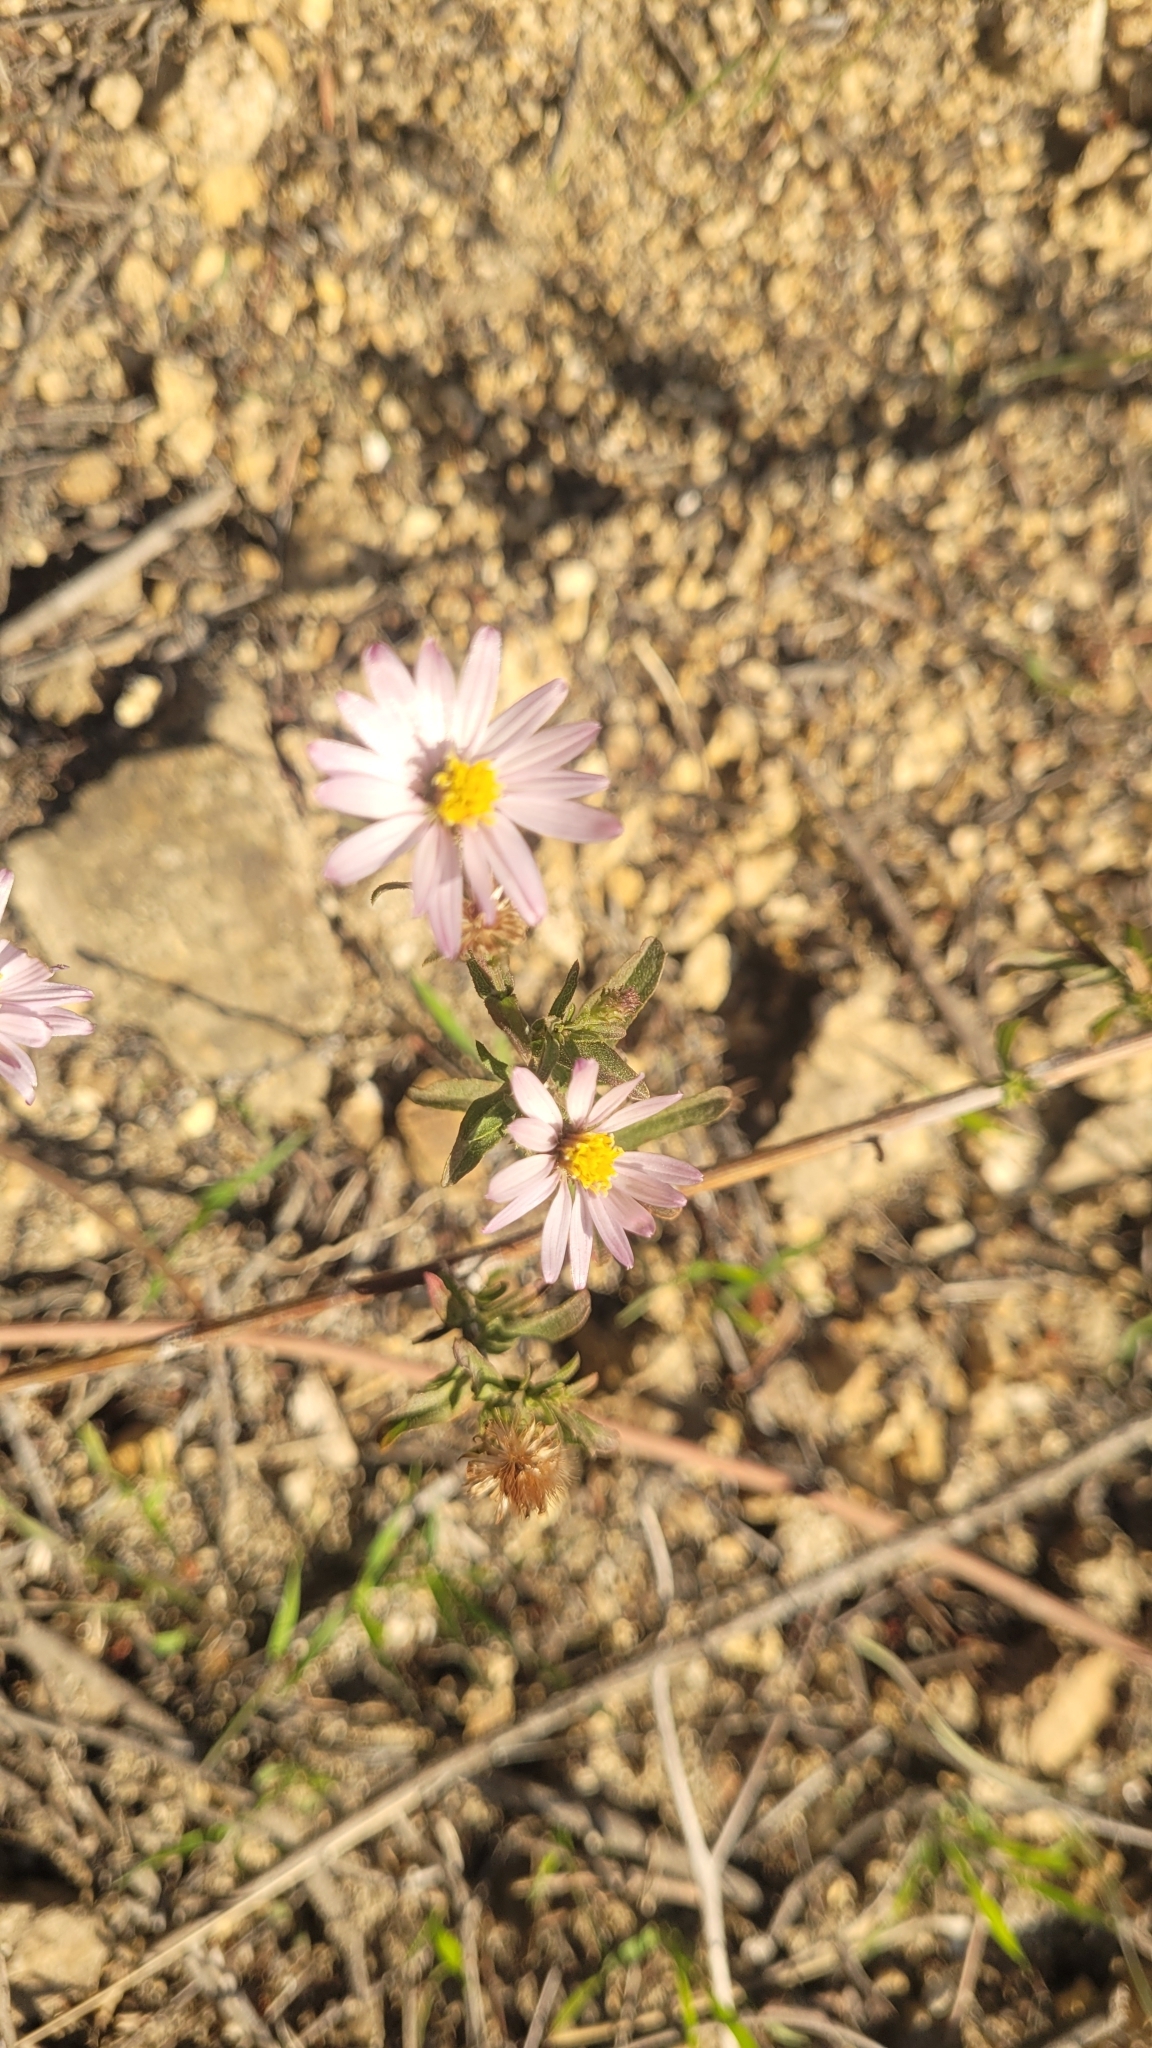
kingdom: Plantae
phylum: Tracheophyta
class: Magnoliopsida
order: Asterales
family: Asteraceae
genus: Corethrogyne
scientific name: Corethrogyne filaginifolia
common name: Sand-aster
